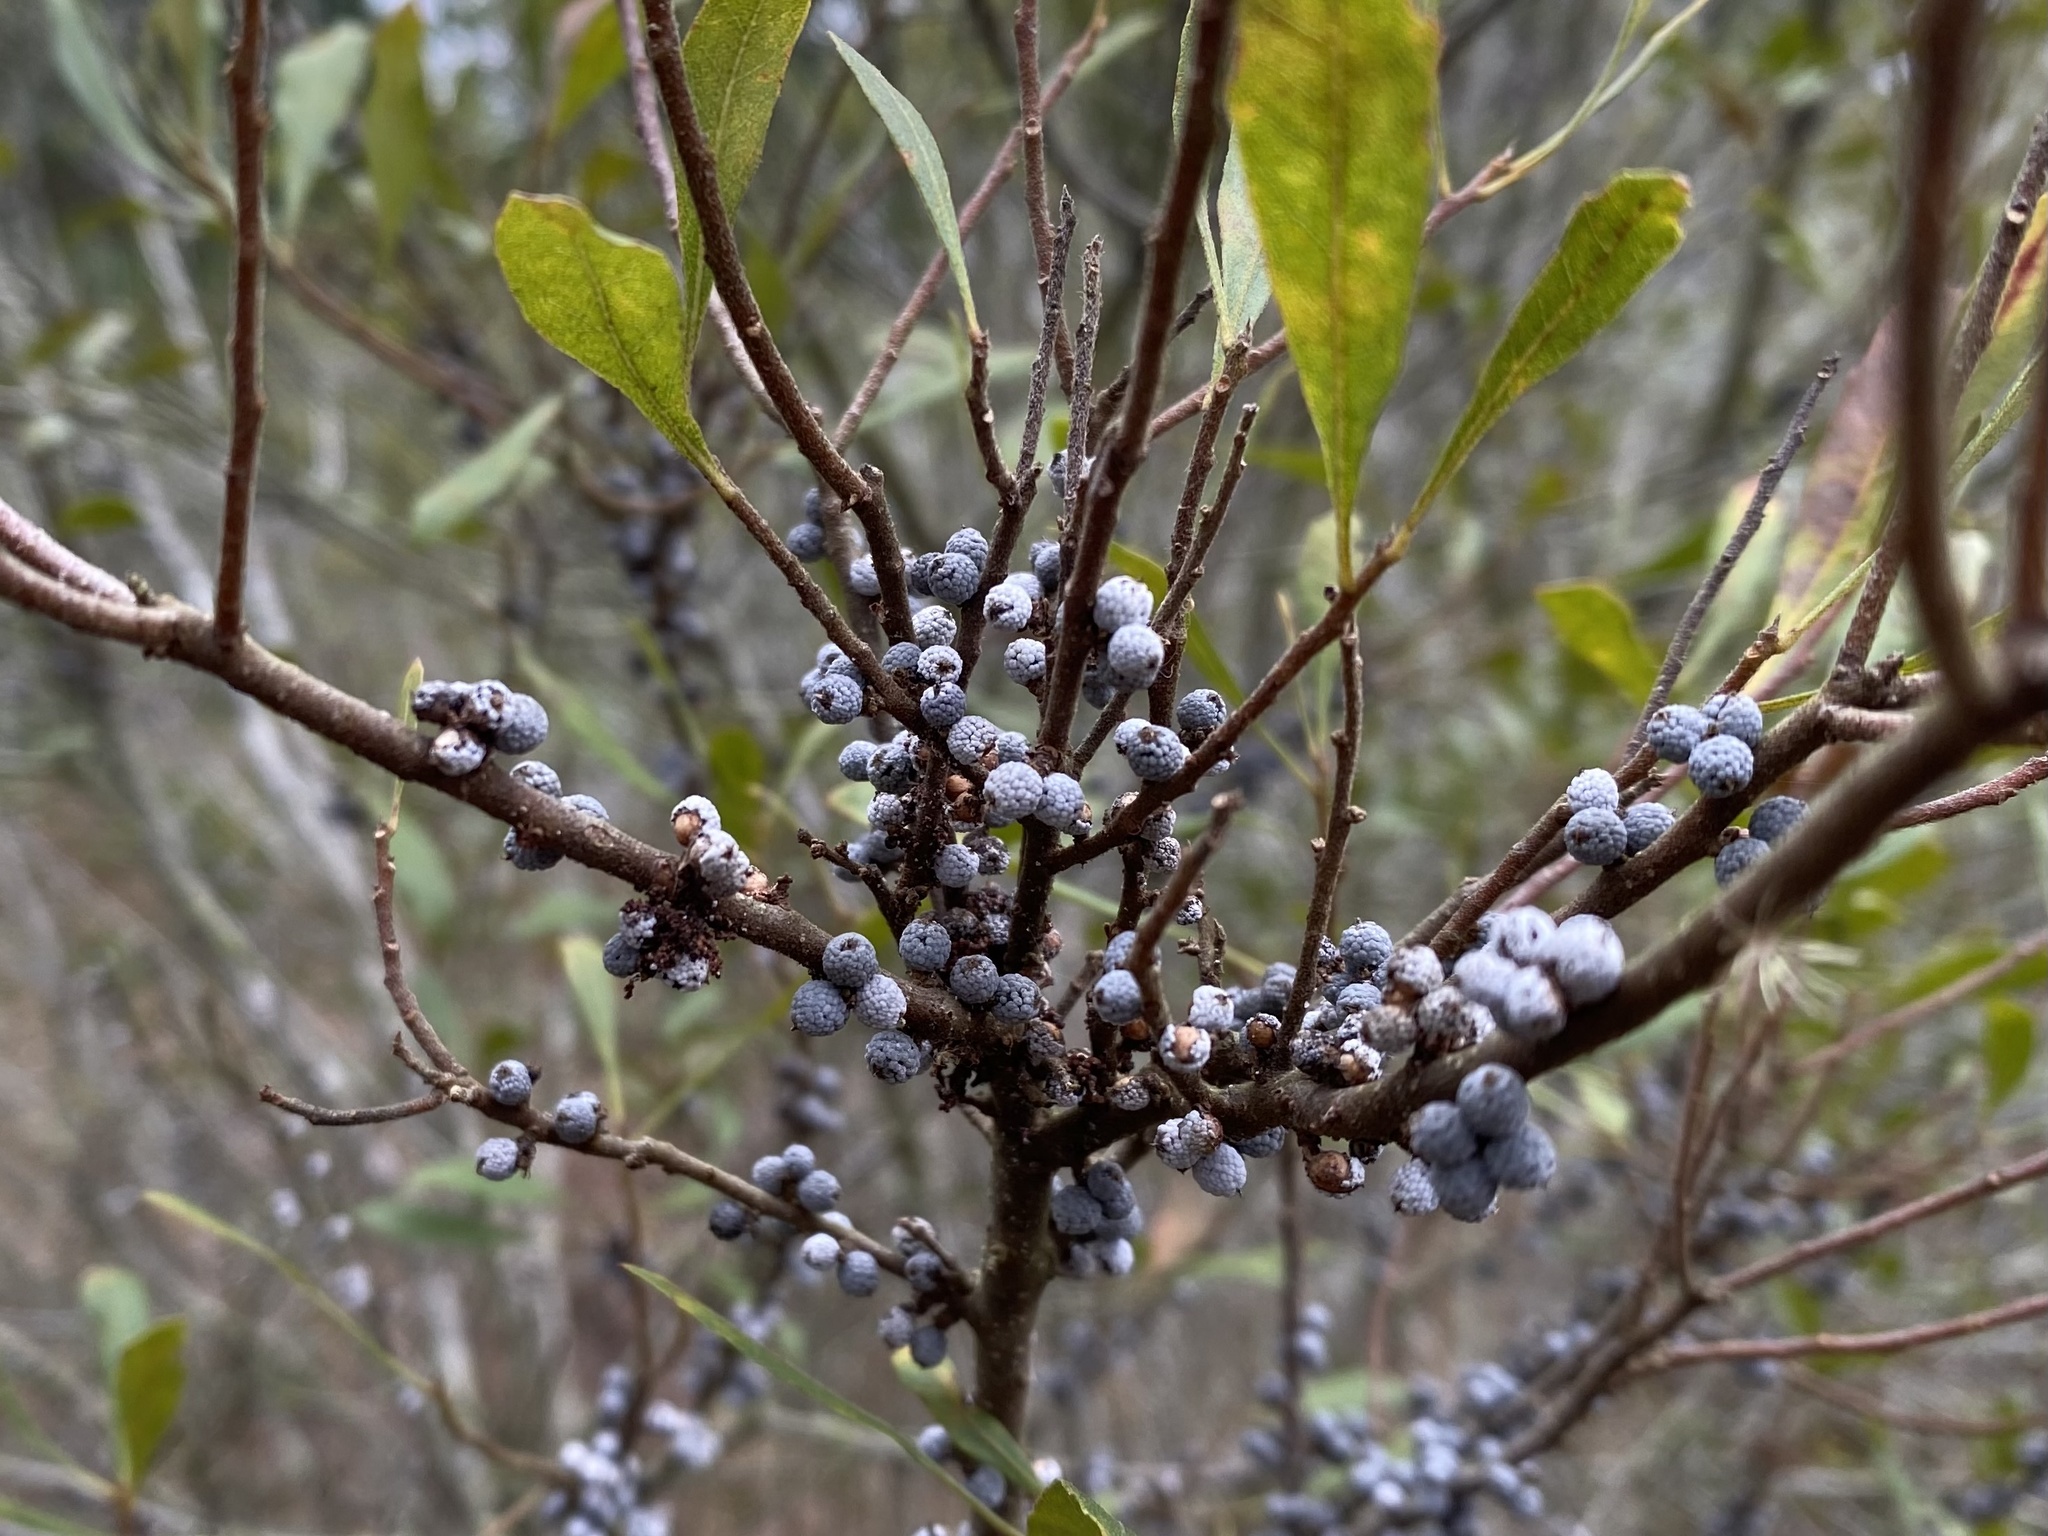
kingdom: Plantae
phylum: Tracheophyta
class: Magnoliopsida
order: Fagales
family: Myricaceae
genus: Morella
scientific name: Morella cerifera
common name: Wax myrtle
